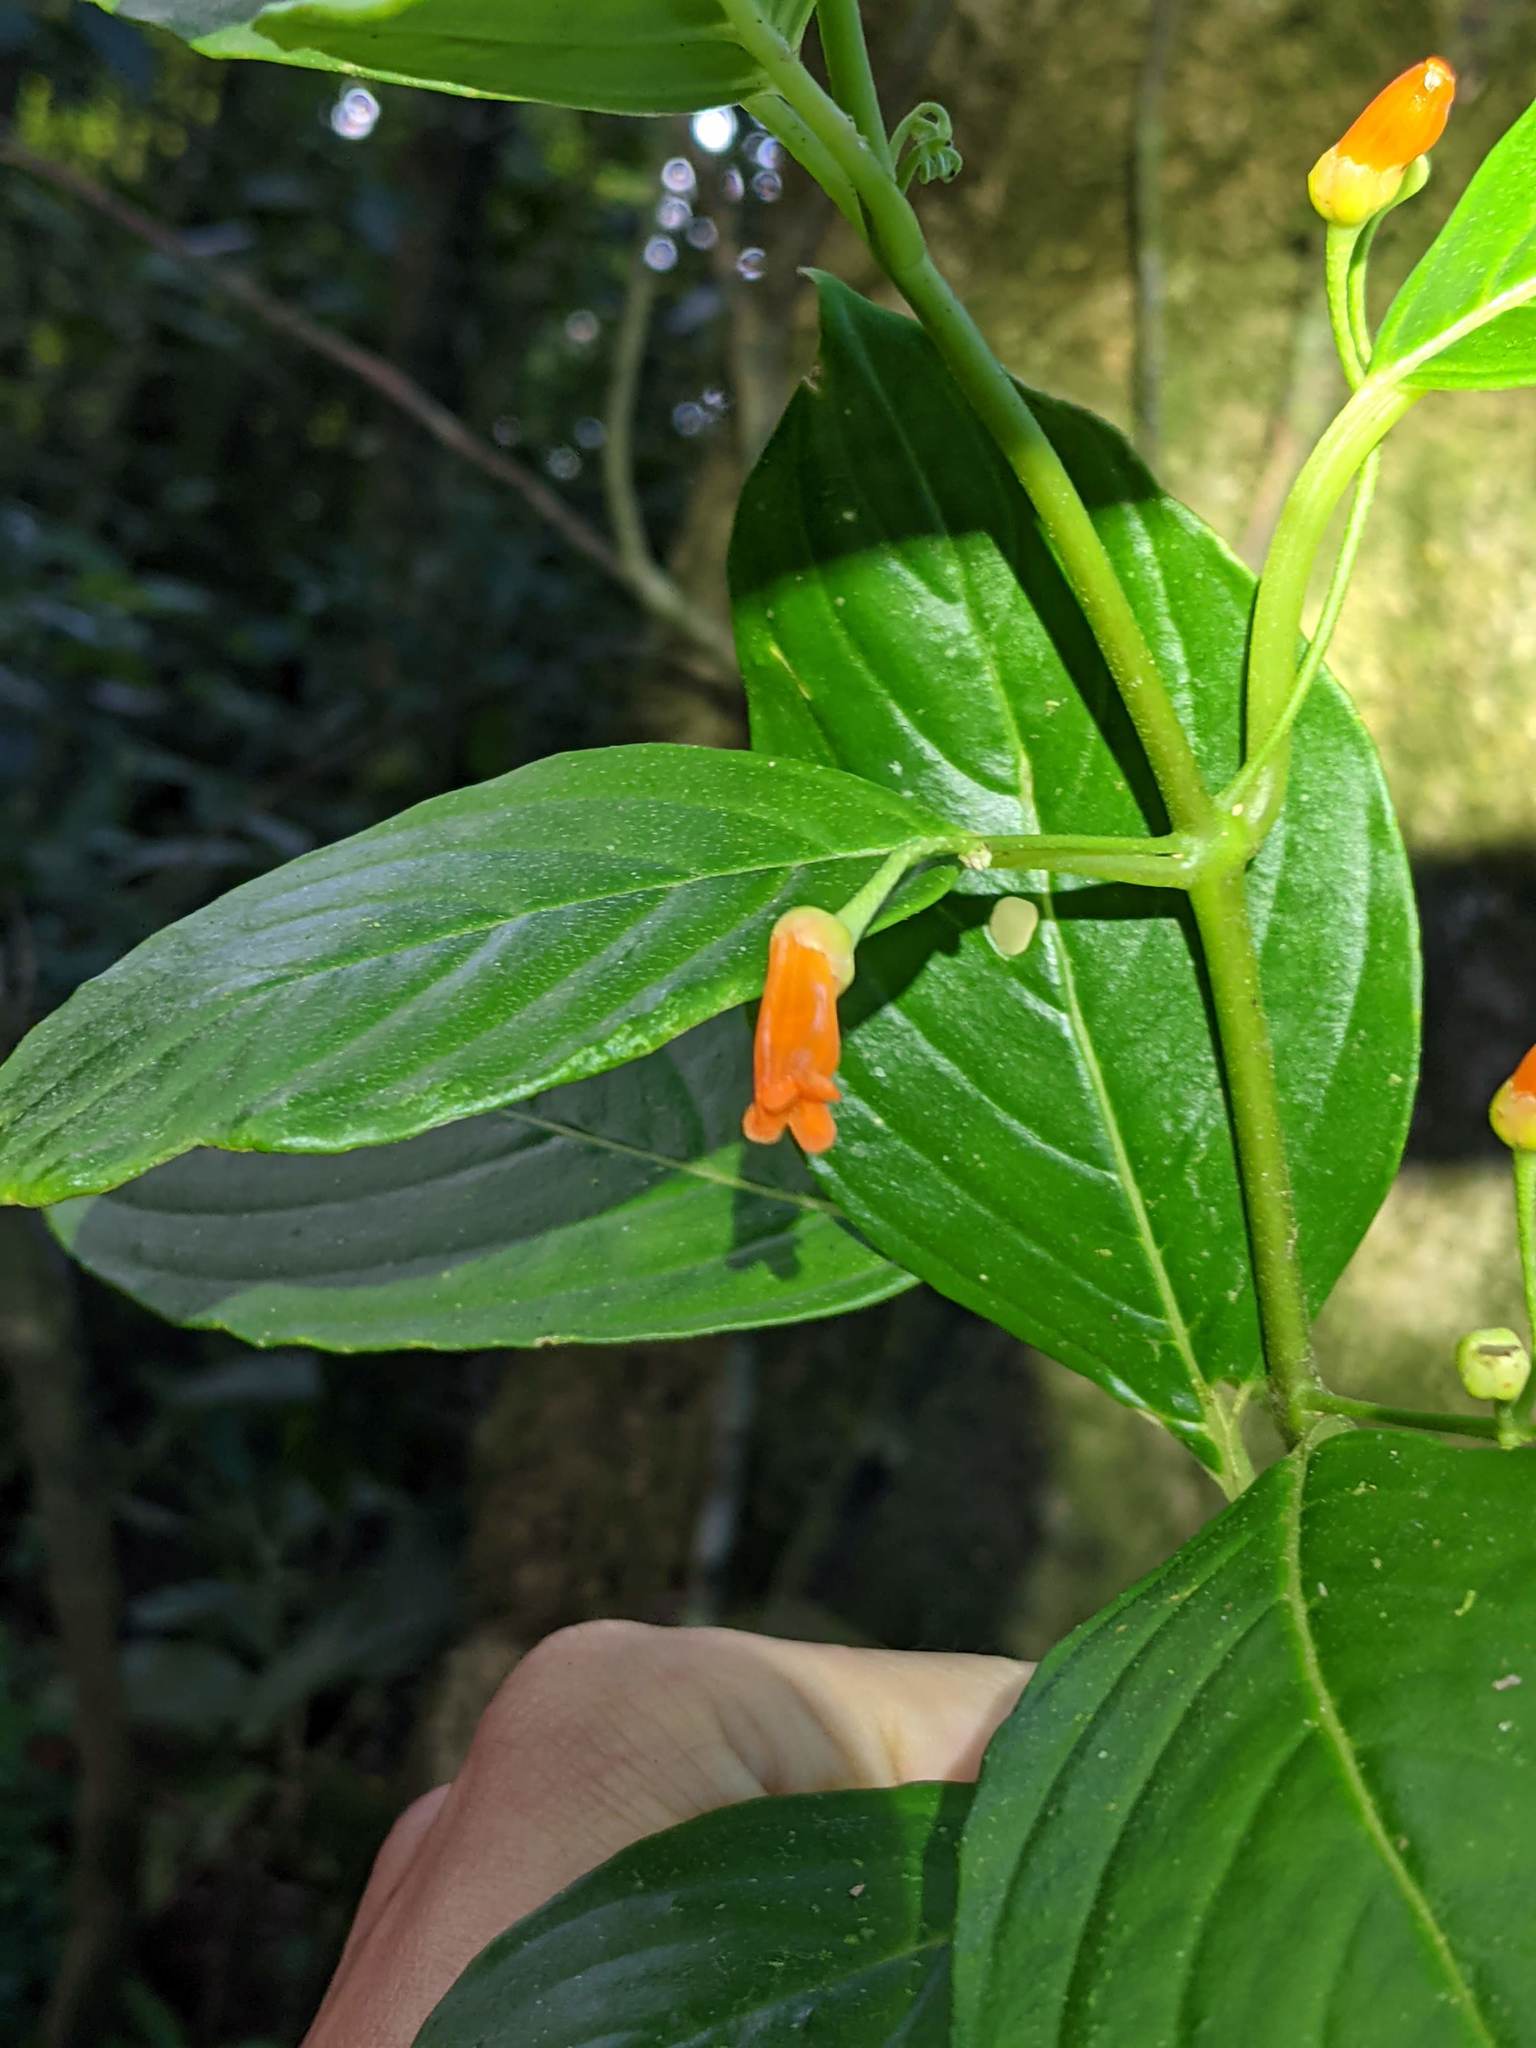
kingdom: Plantae
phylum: Tracheophyta
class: Magnoliopsida
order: Lamiales
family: Gesneriaceae
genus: Besleria
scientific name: Besleria triflora
